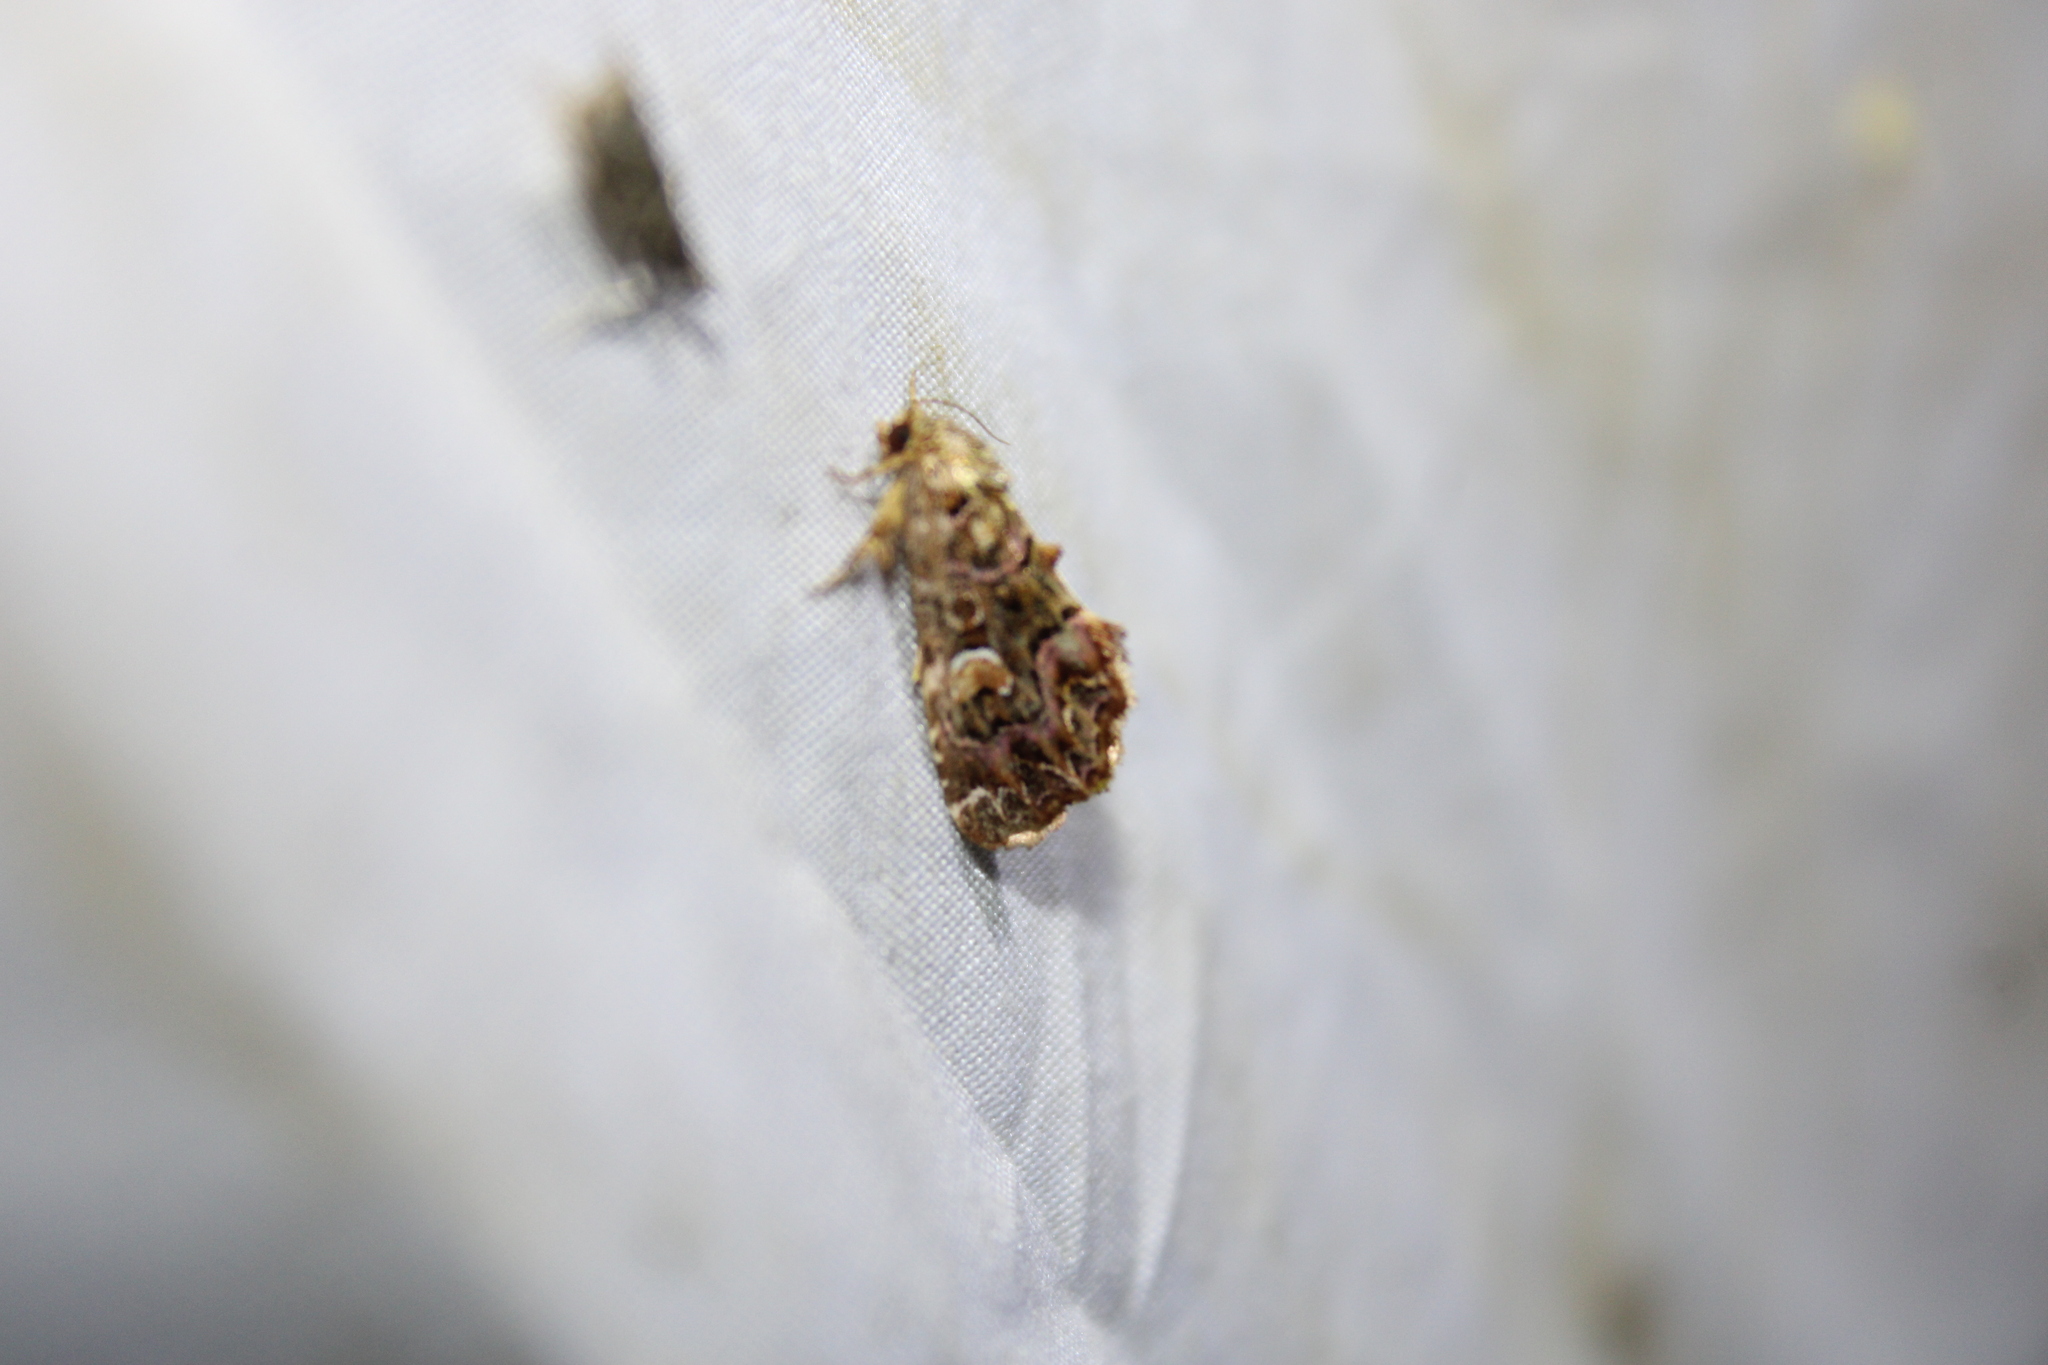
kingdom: Animalia
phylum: Arthropoda
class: Insecta
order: Lepidoptera
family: Noctuidae
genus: Callopistria
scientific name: Callopistria mollissima
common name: Pink-shaded fern moth
